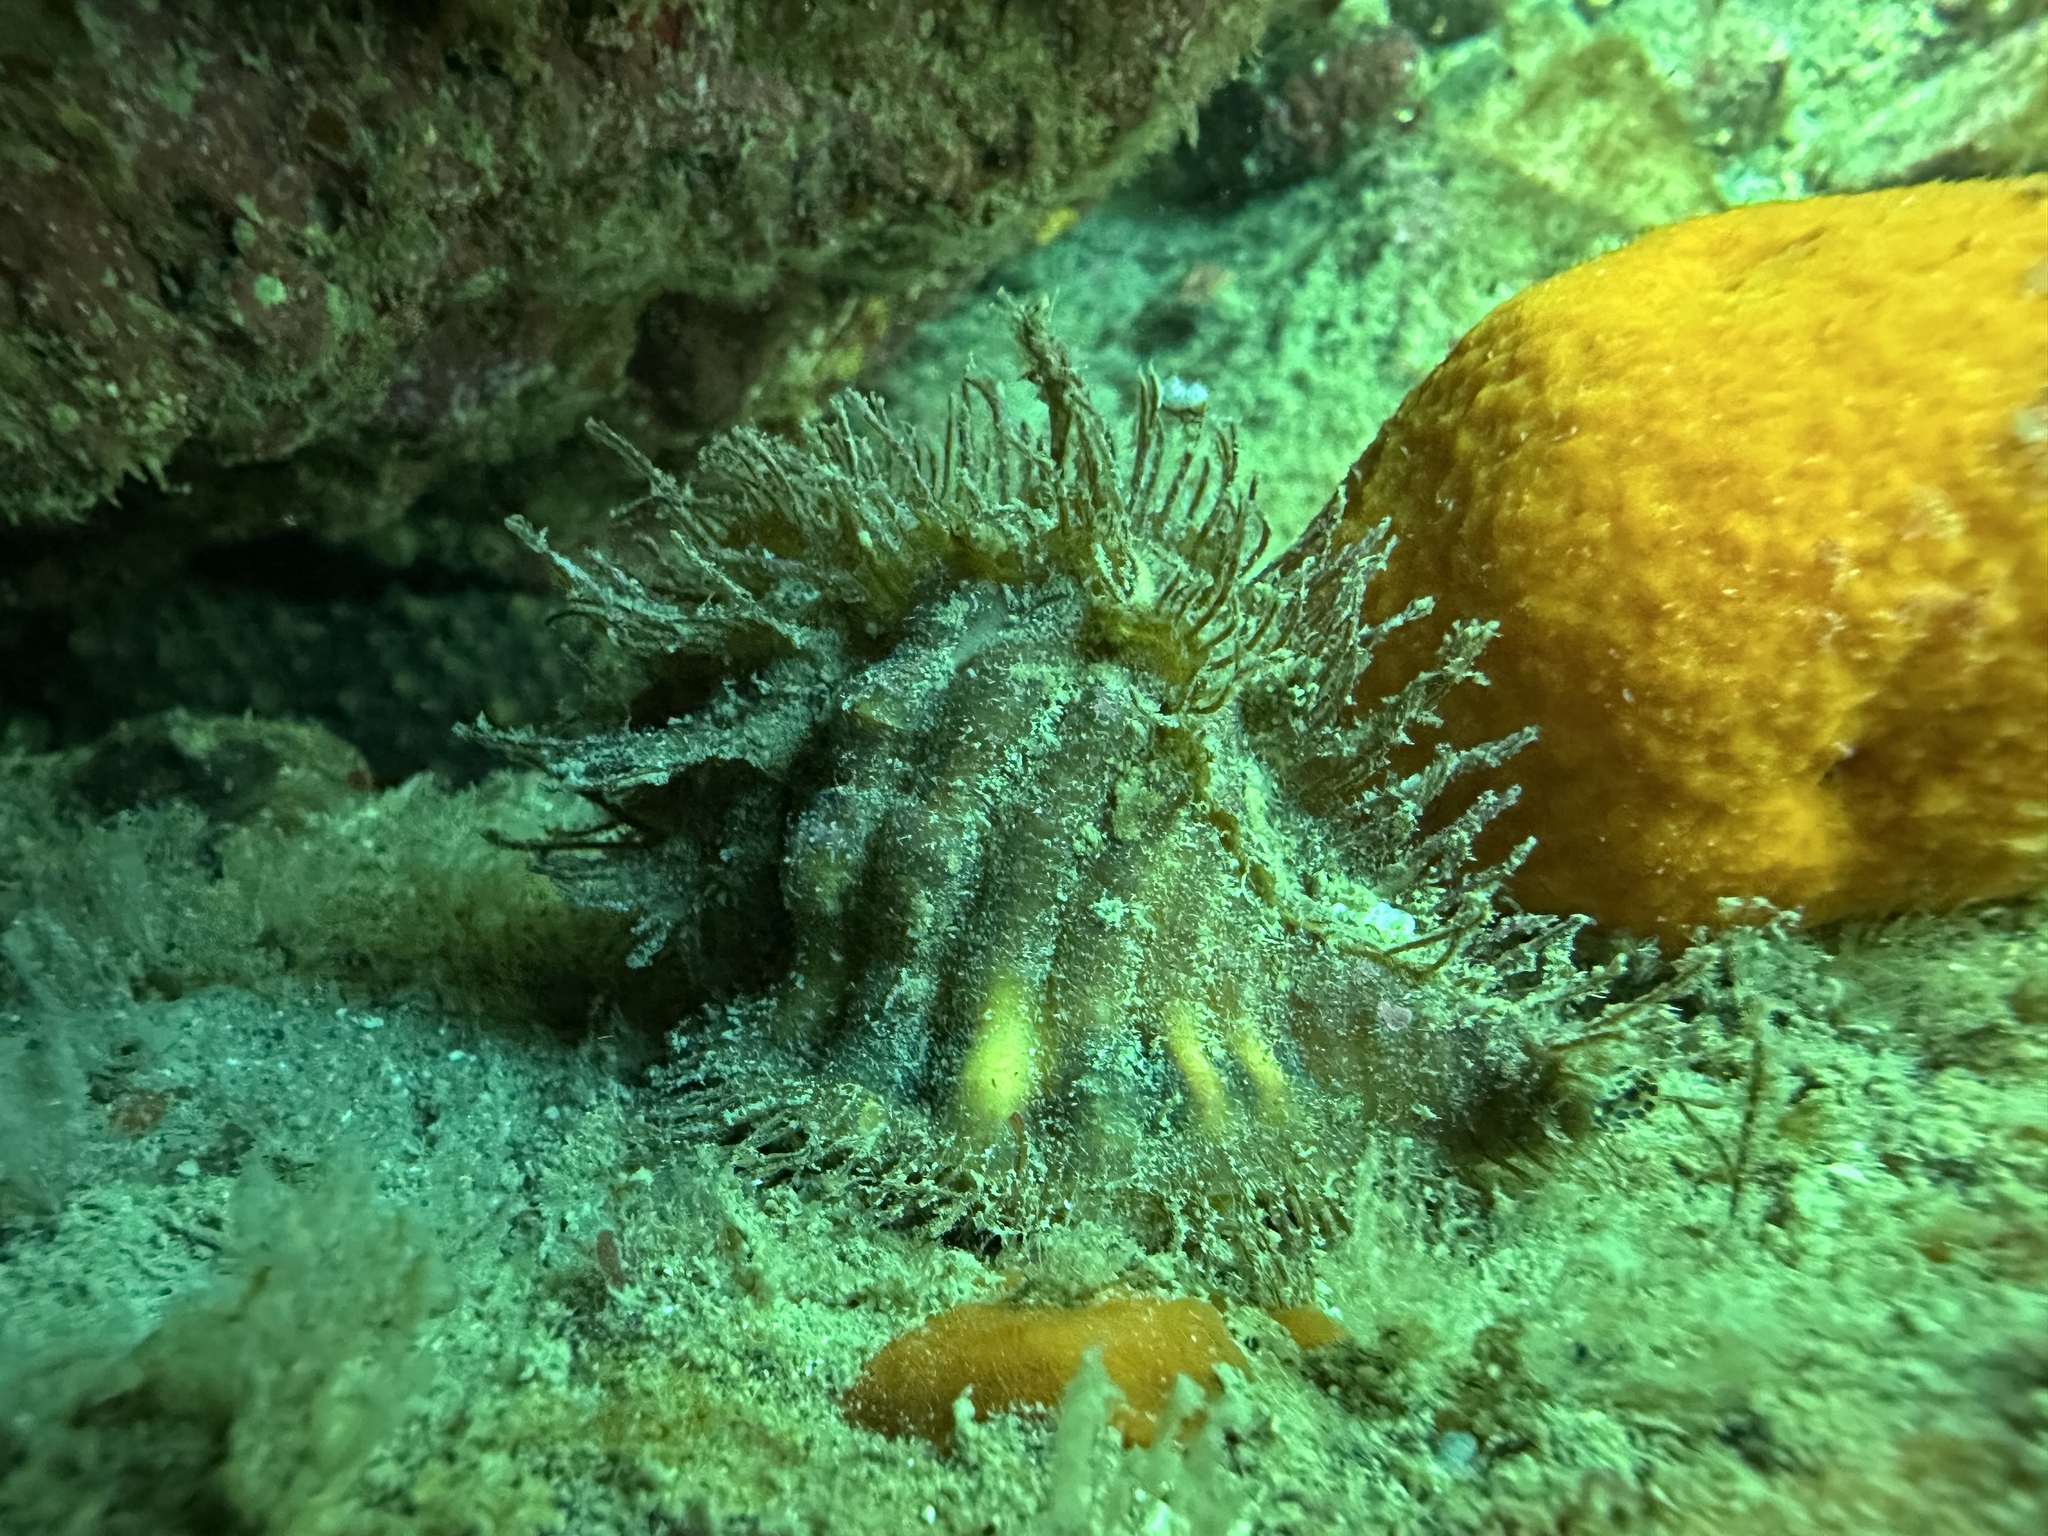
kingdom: Animalia
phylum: Mollusca
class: Gastropoda
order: Littorinimorpha
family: Cymatiidae
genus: Monoplex
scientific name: Monoplex parthenopeus
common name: Giant triton
